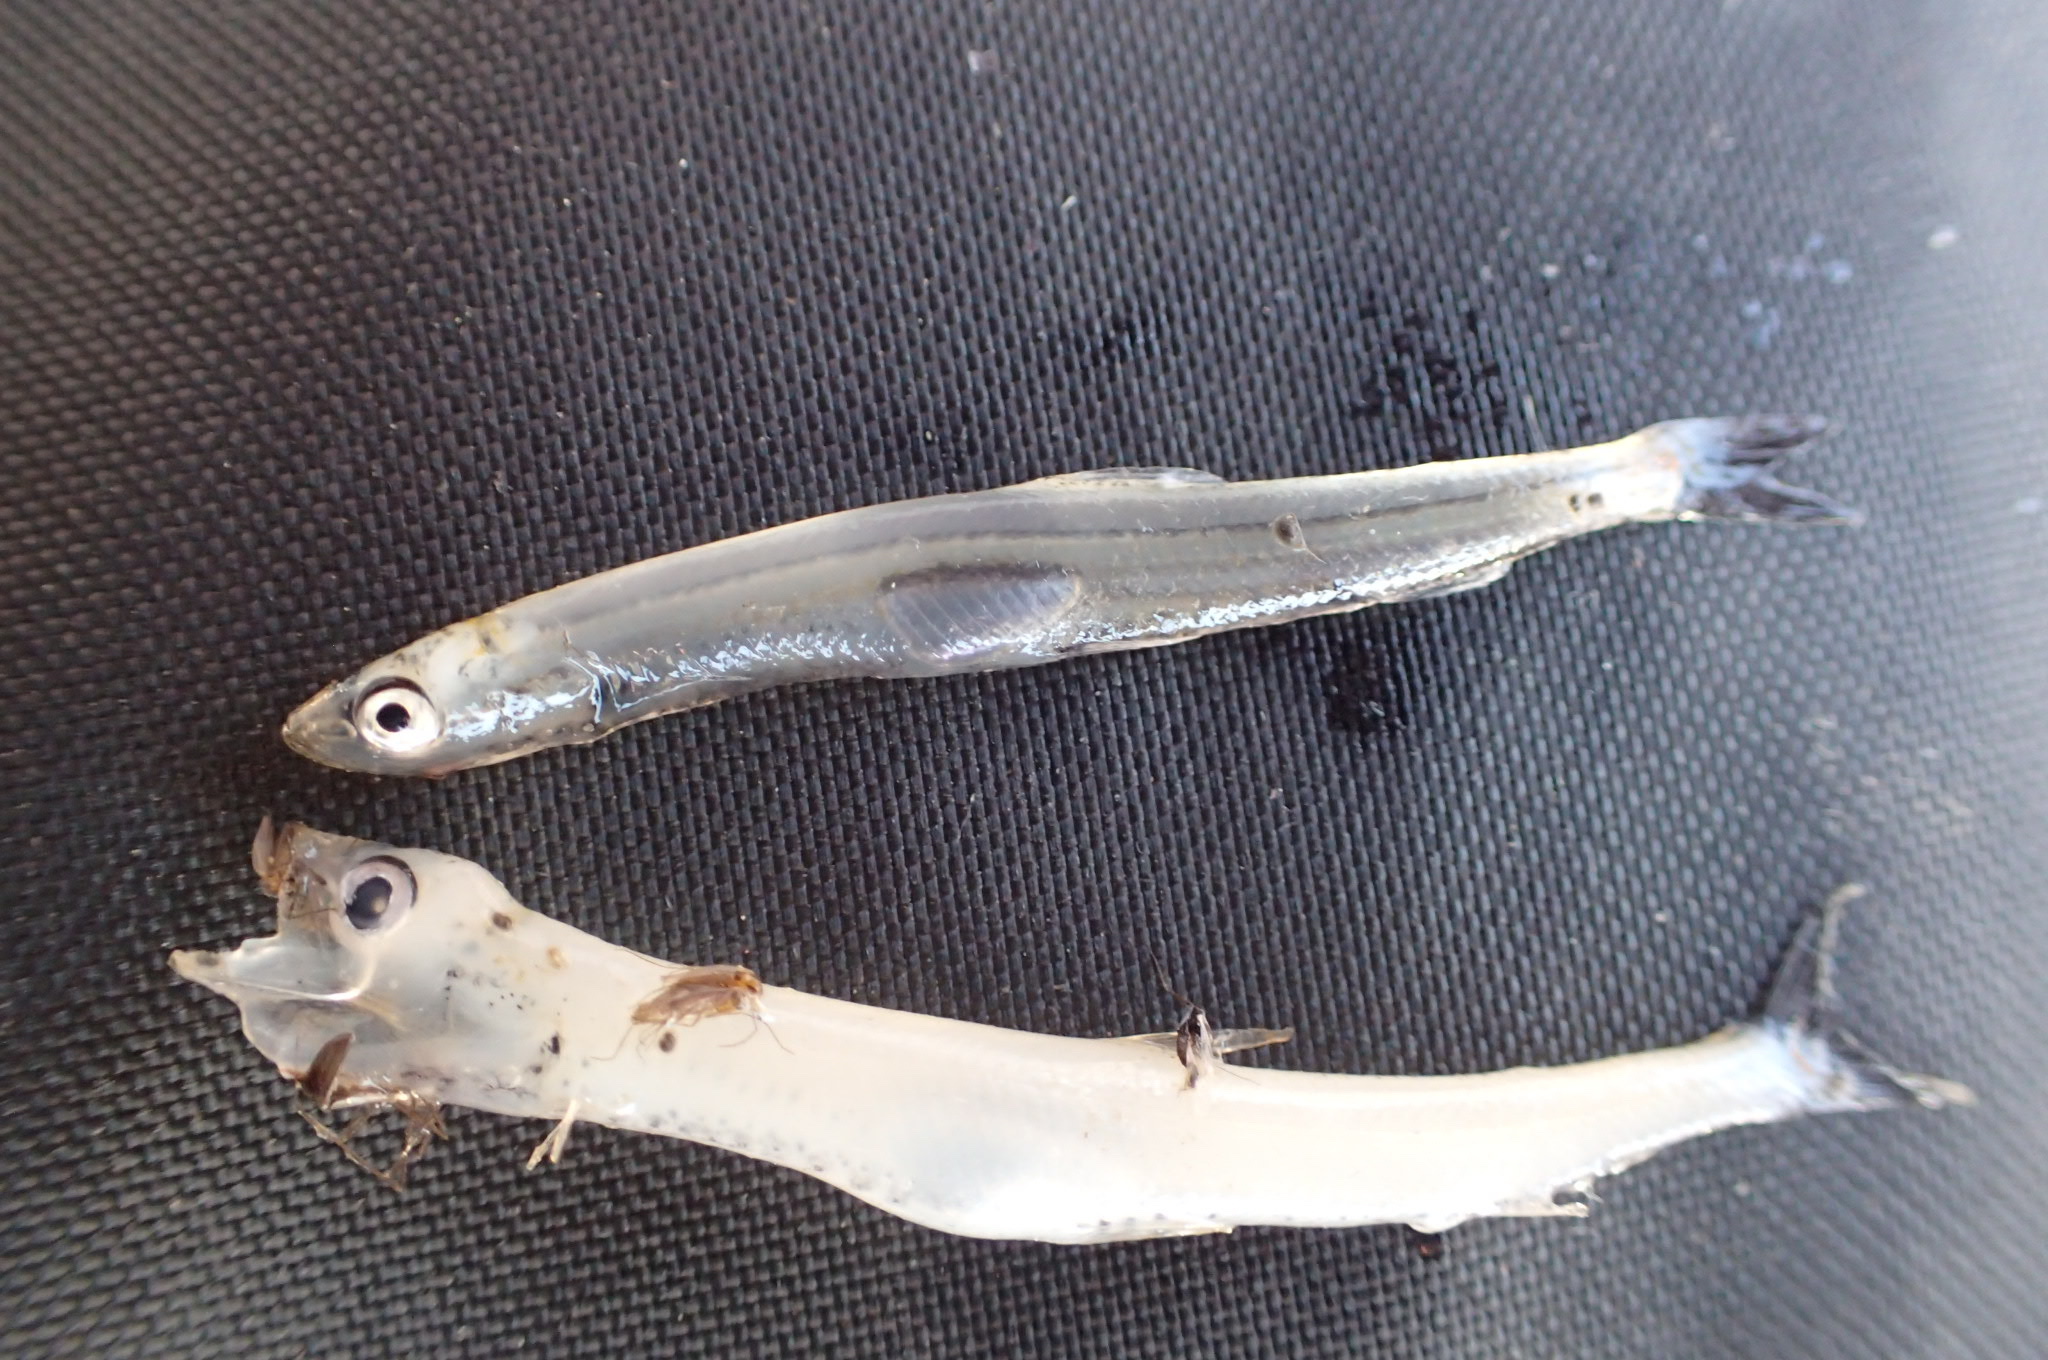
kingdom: Animalia
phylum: Chordata
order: Osmeriformes
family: Osmeridae
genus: Osmerus
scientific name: Osmerus mordax
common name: Rainbow smelt
